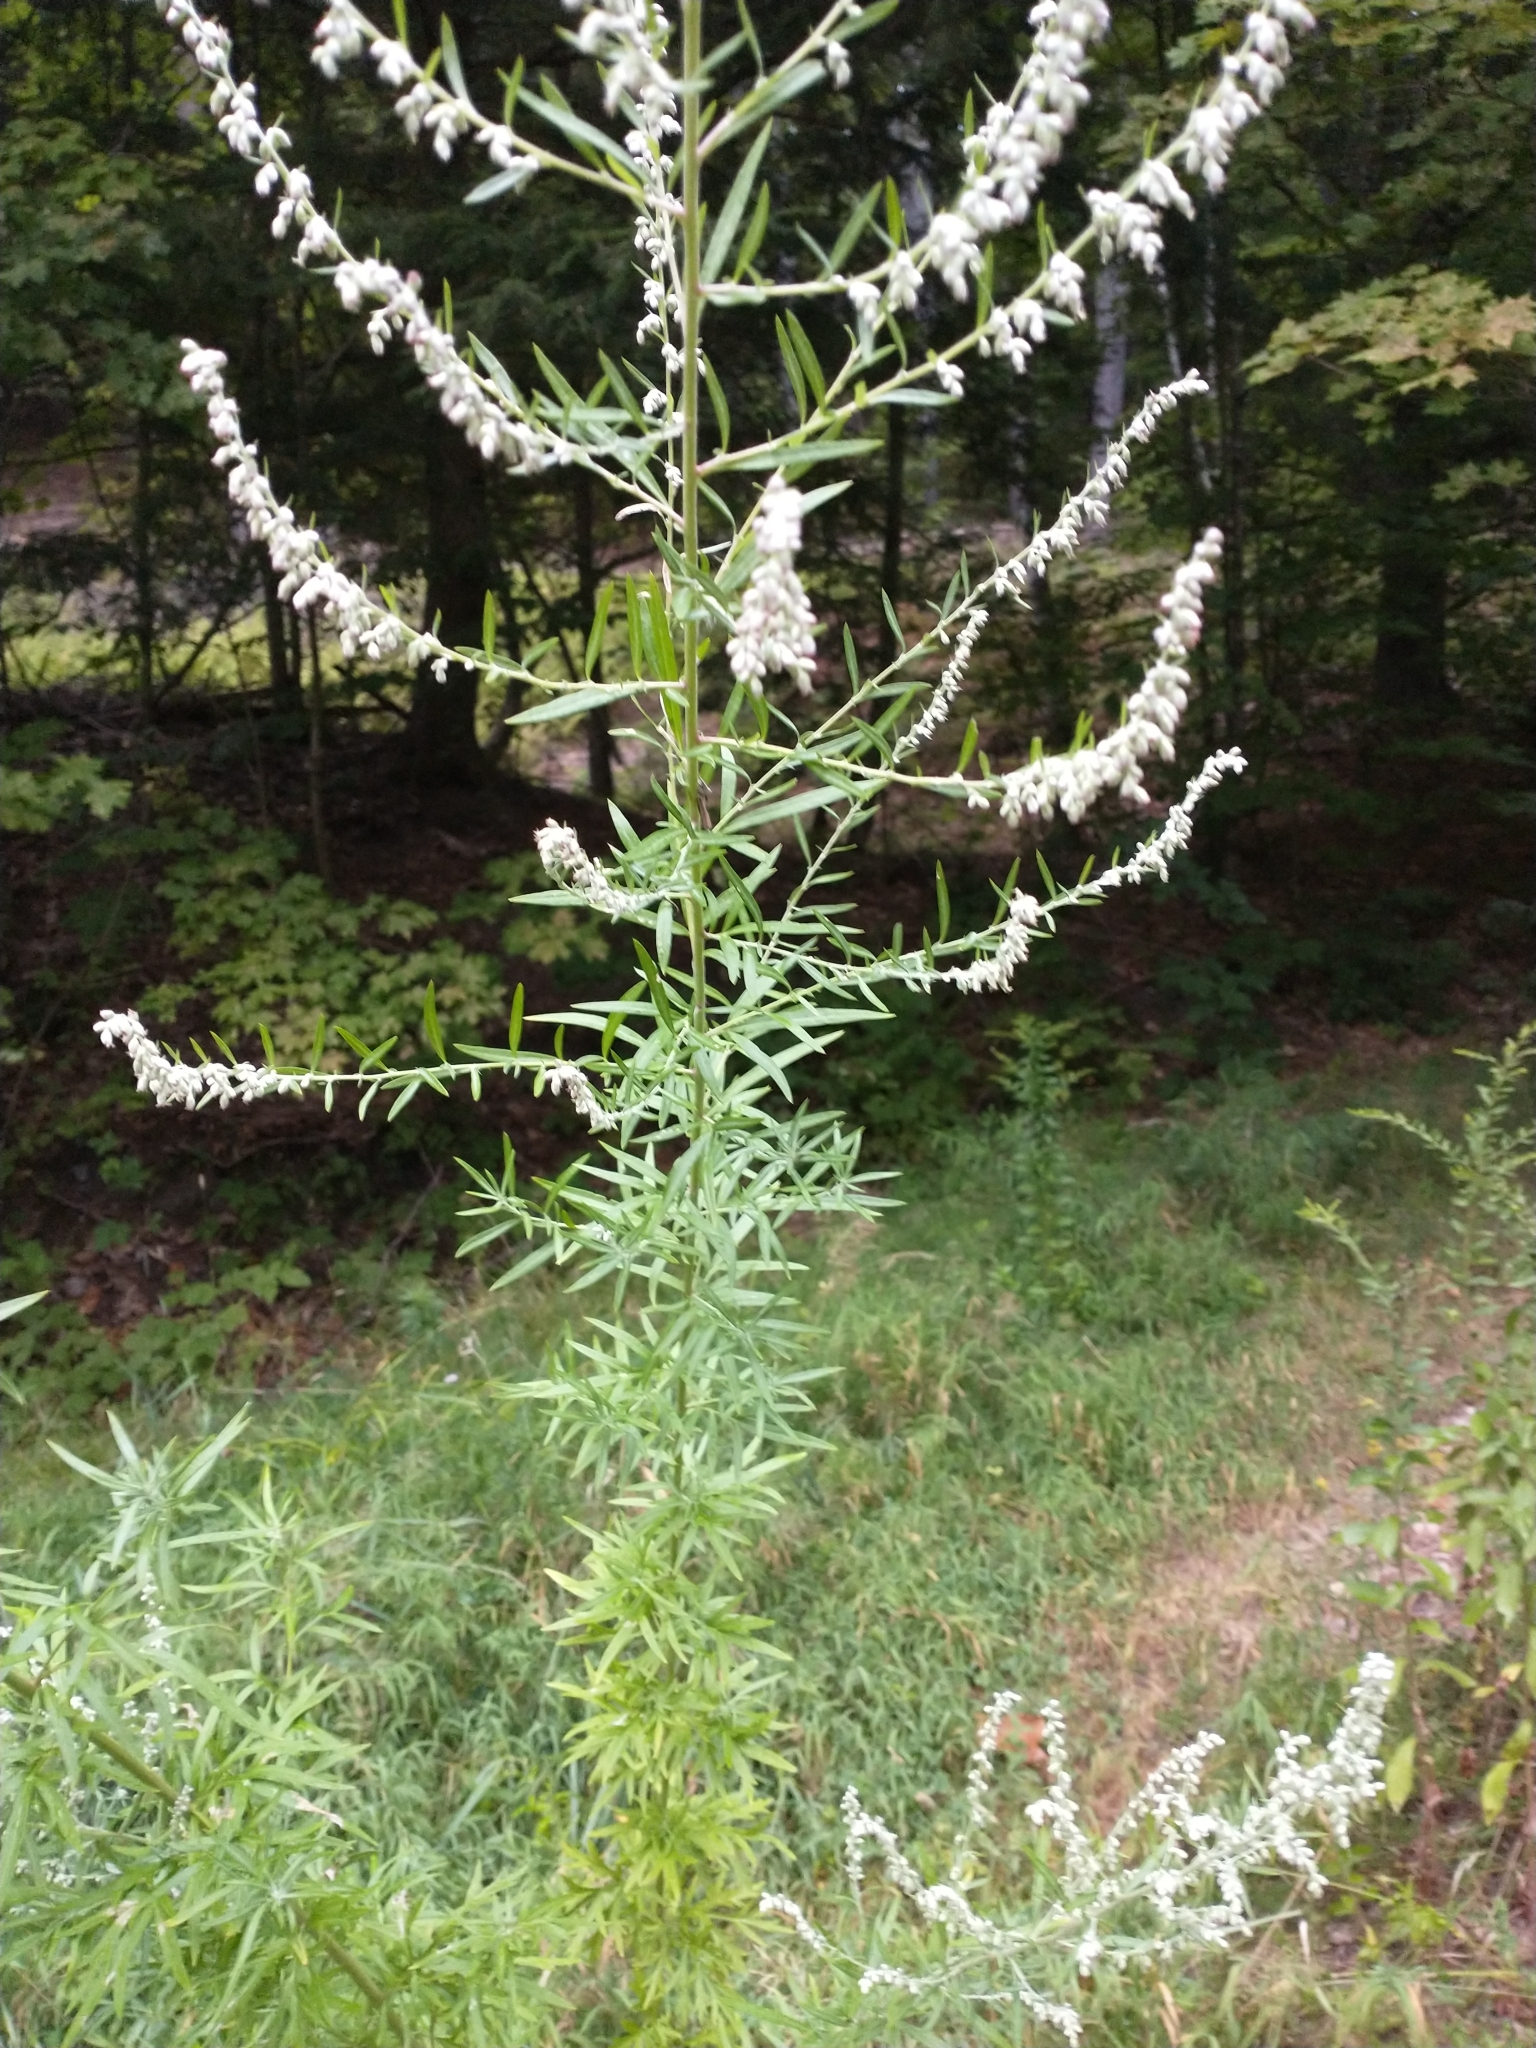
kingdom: Plantae
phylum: Tracheophyta
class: Magnoliopsida
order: Asterales
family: Asteraceae
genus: Artemisia
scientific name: Artemisia vulgaris
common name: Mugwort
